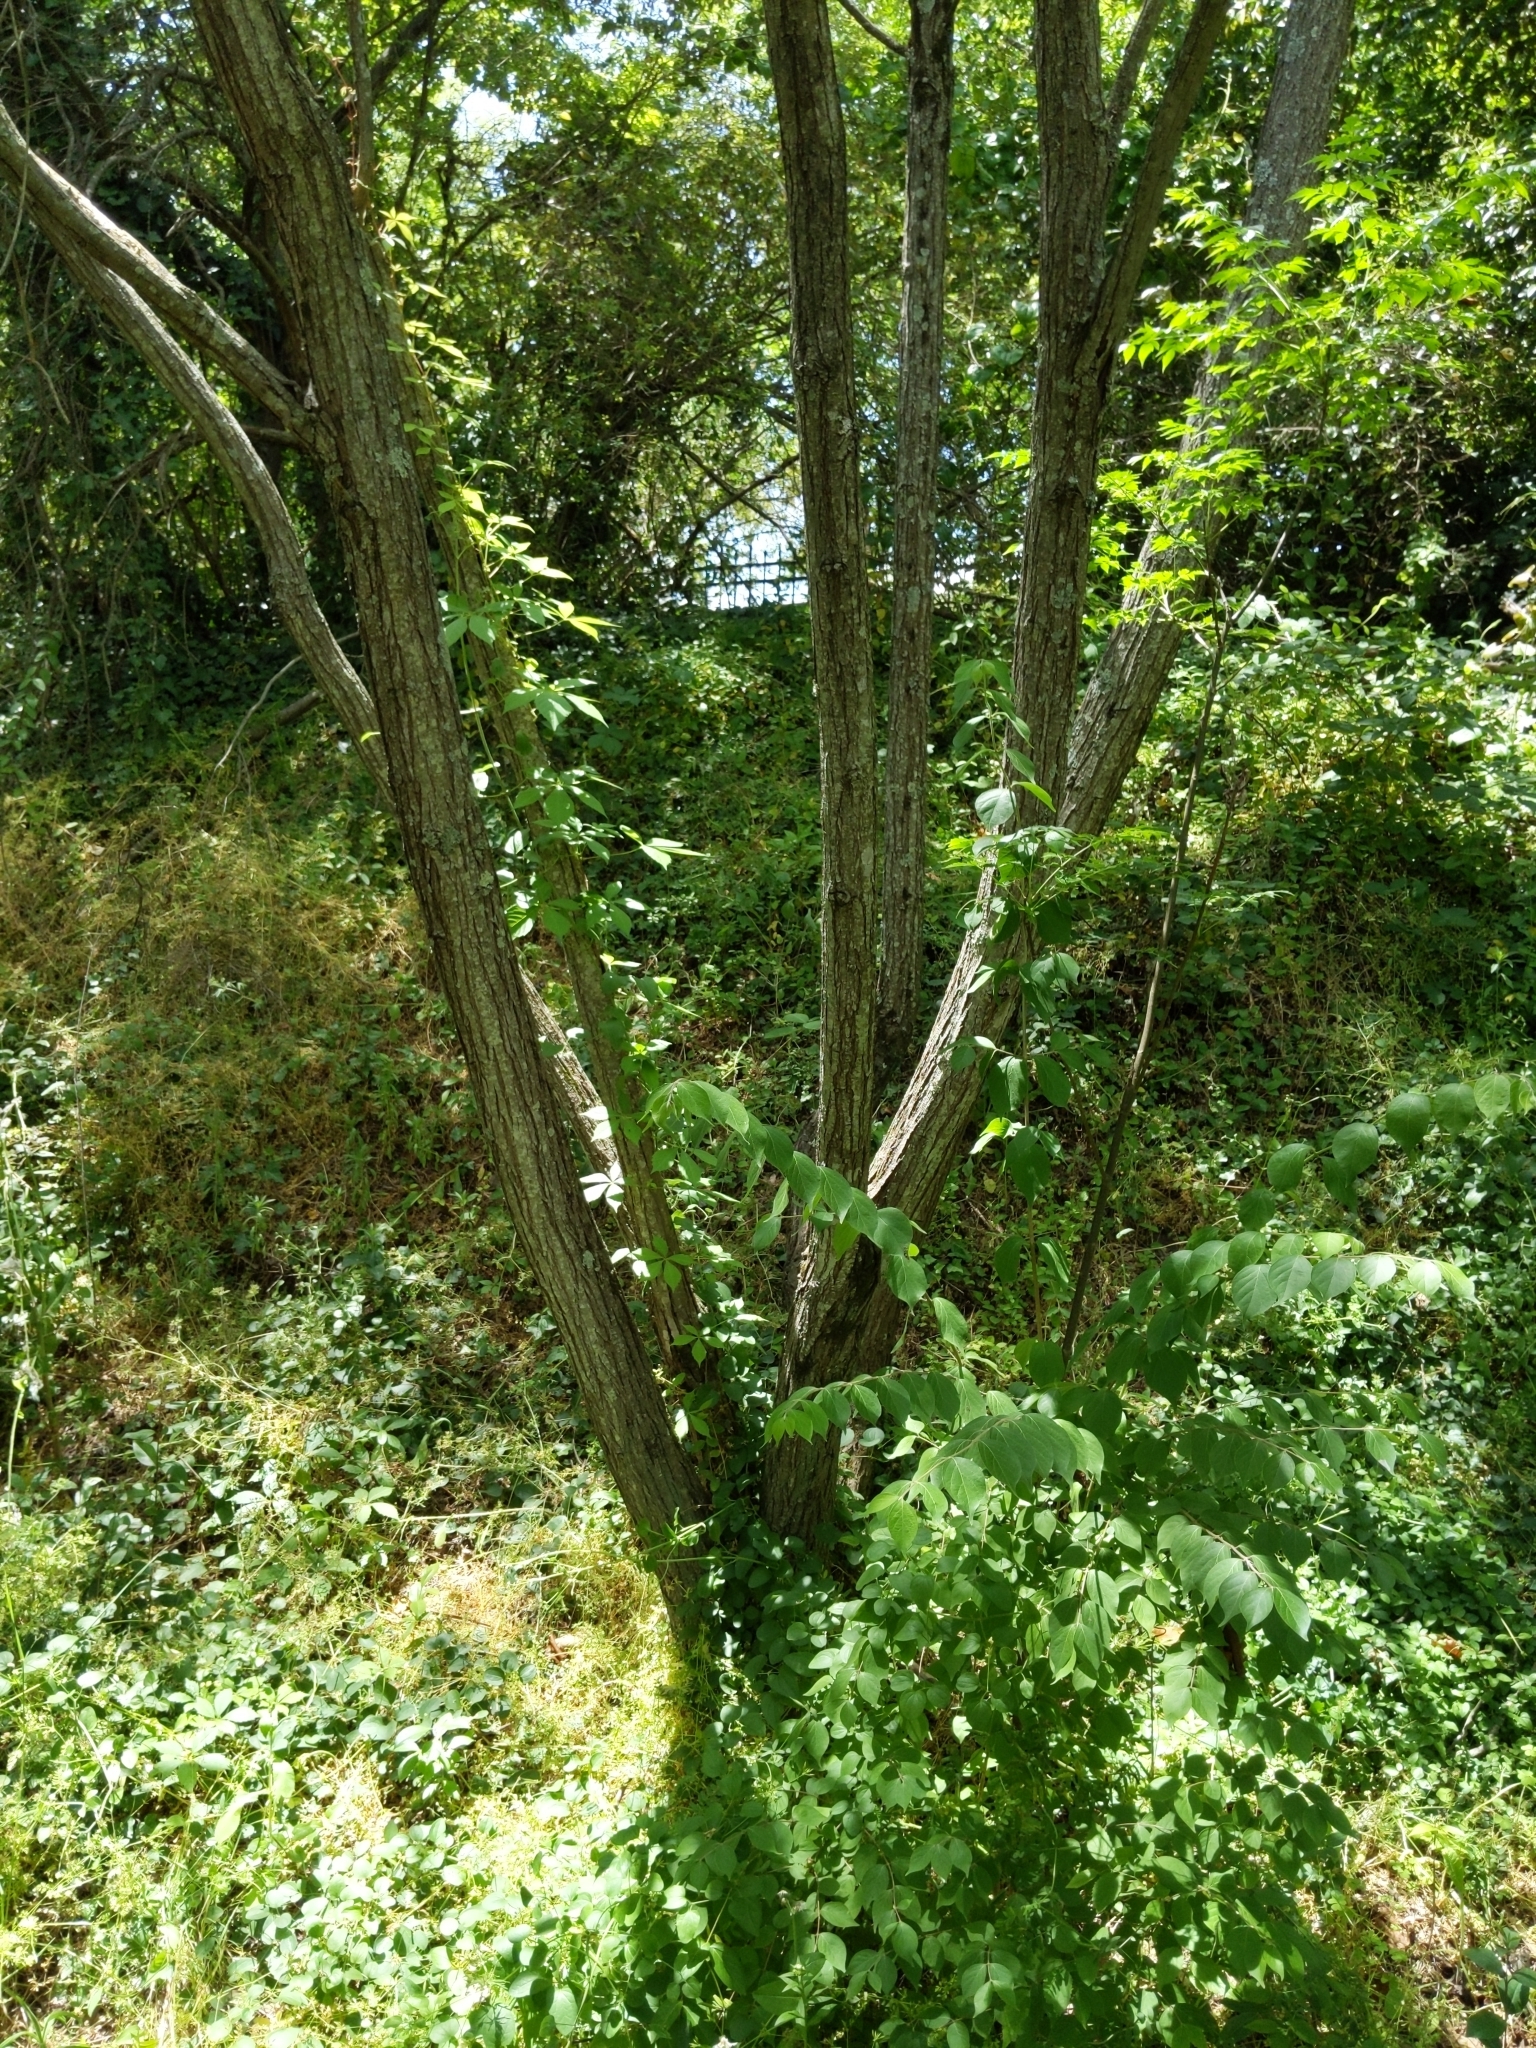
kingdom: Plantae
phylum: Tracheophyta
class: Magnoliopsida
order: Sapindales
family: Meliaceae
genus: Melia
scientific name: Melia azedarach
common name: Chinaberrytree
